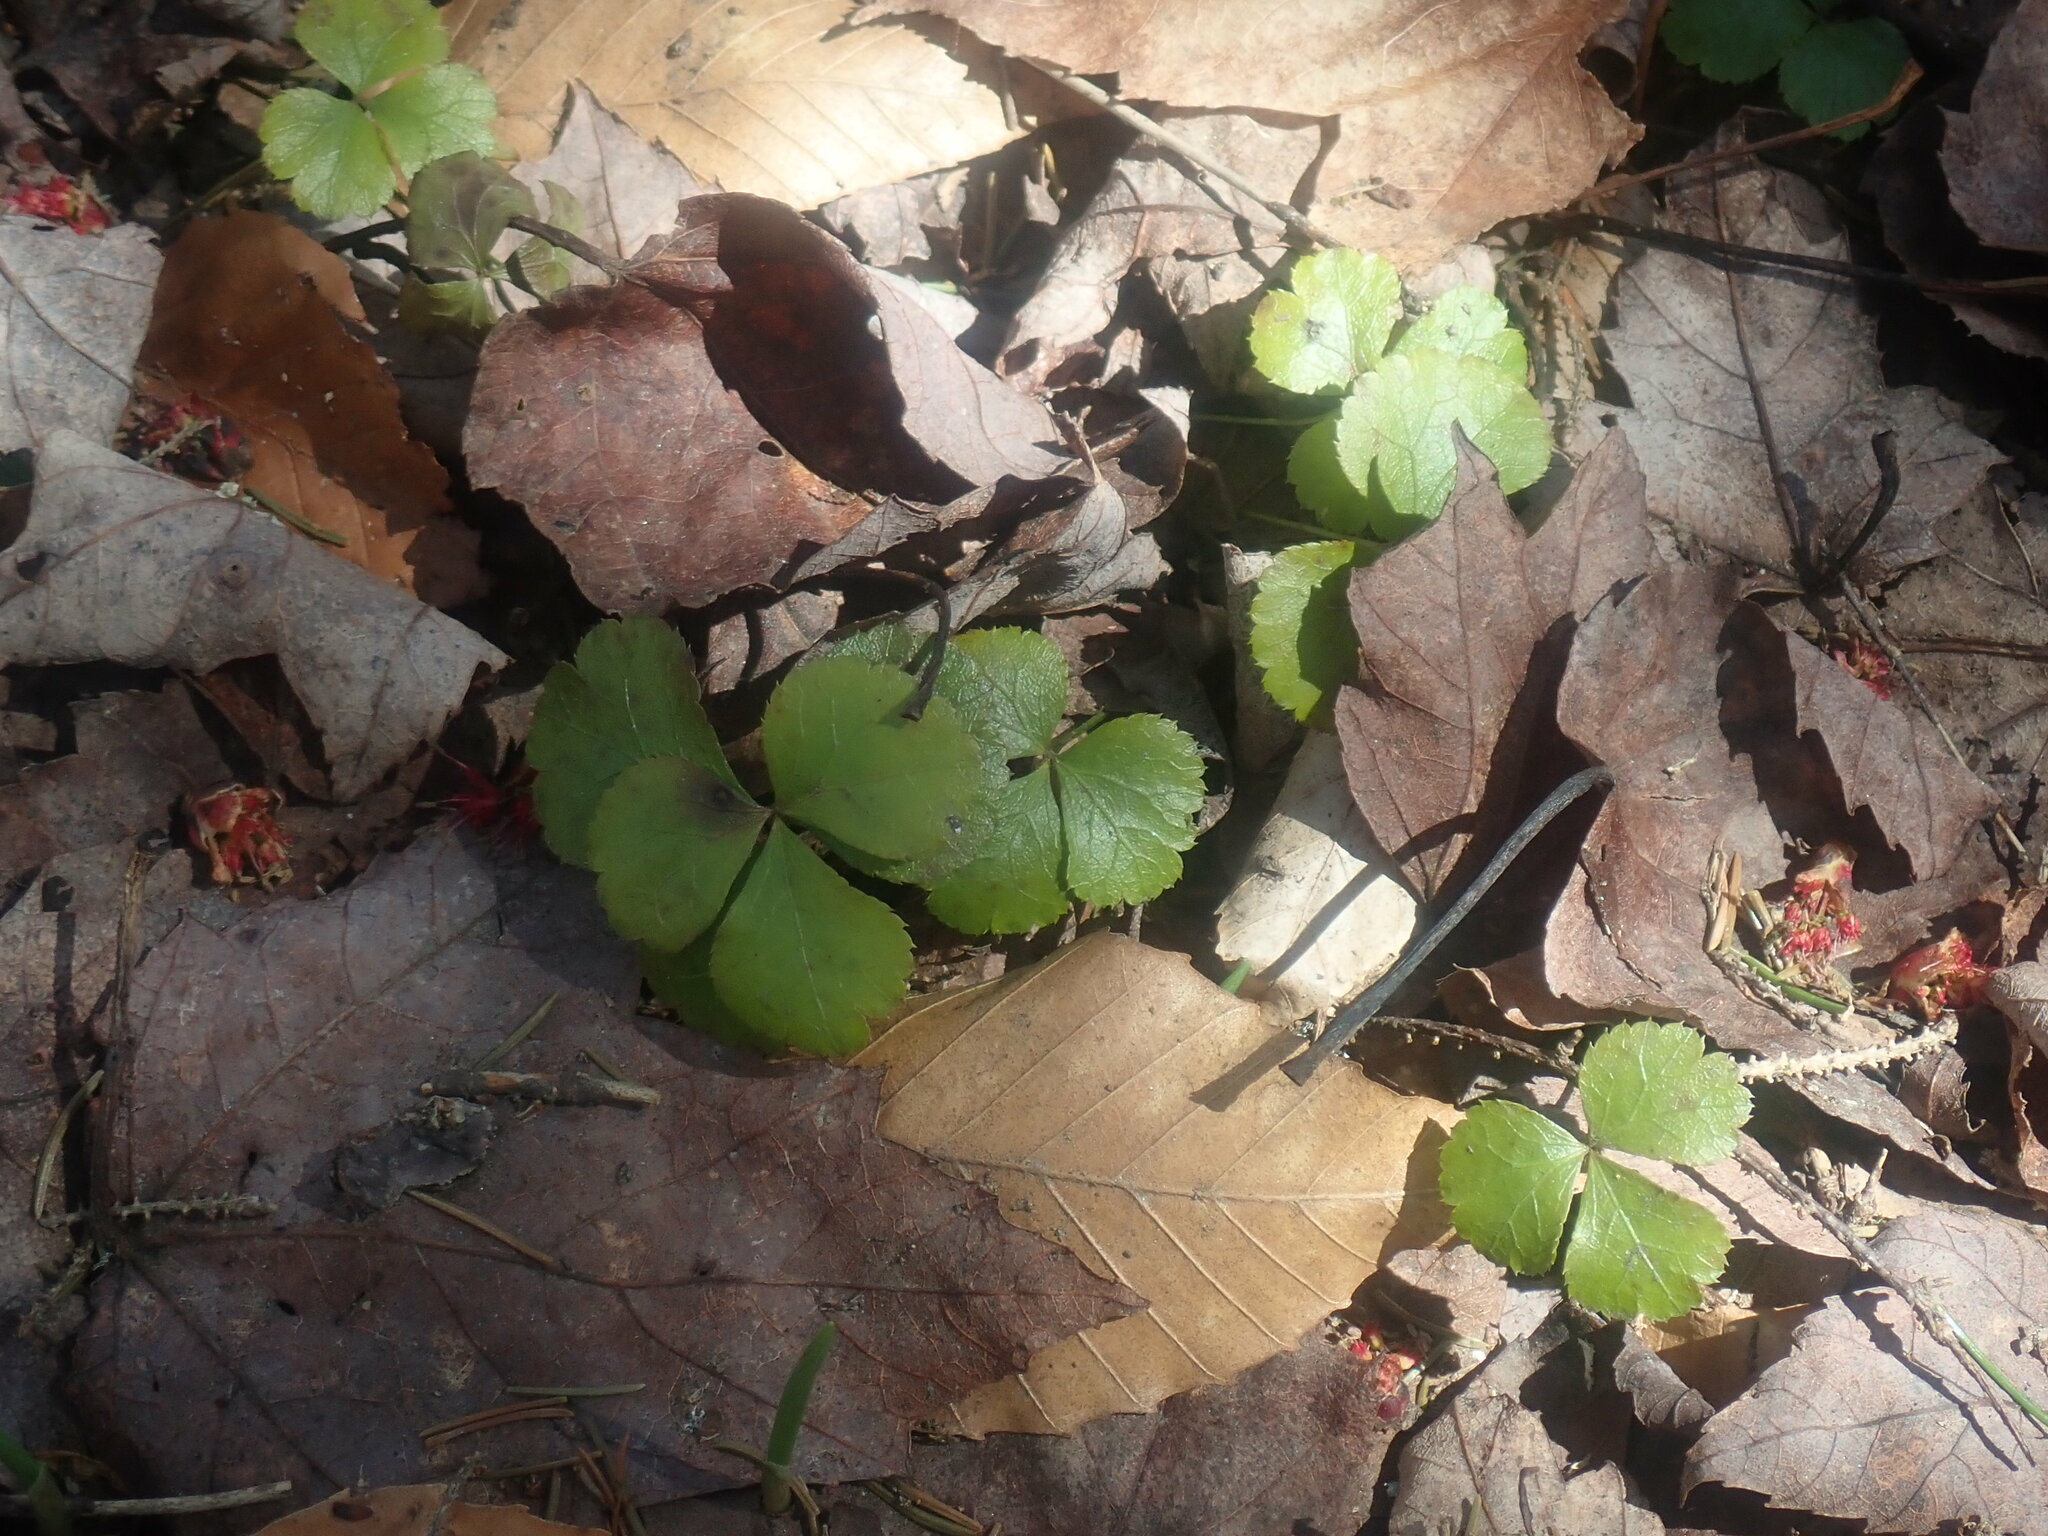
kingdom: Plantae
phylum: Tracheophyta
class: Magnoliopsida
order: Ranunculales
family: Ranunculaceae
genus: Coptis
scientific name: Coptis trifolia
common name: Canker-root
